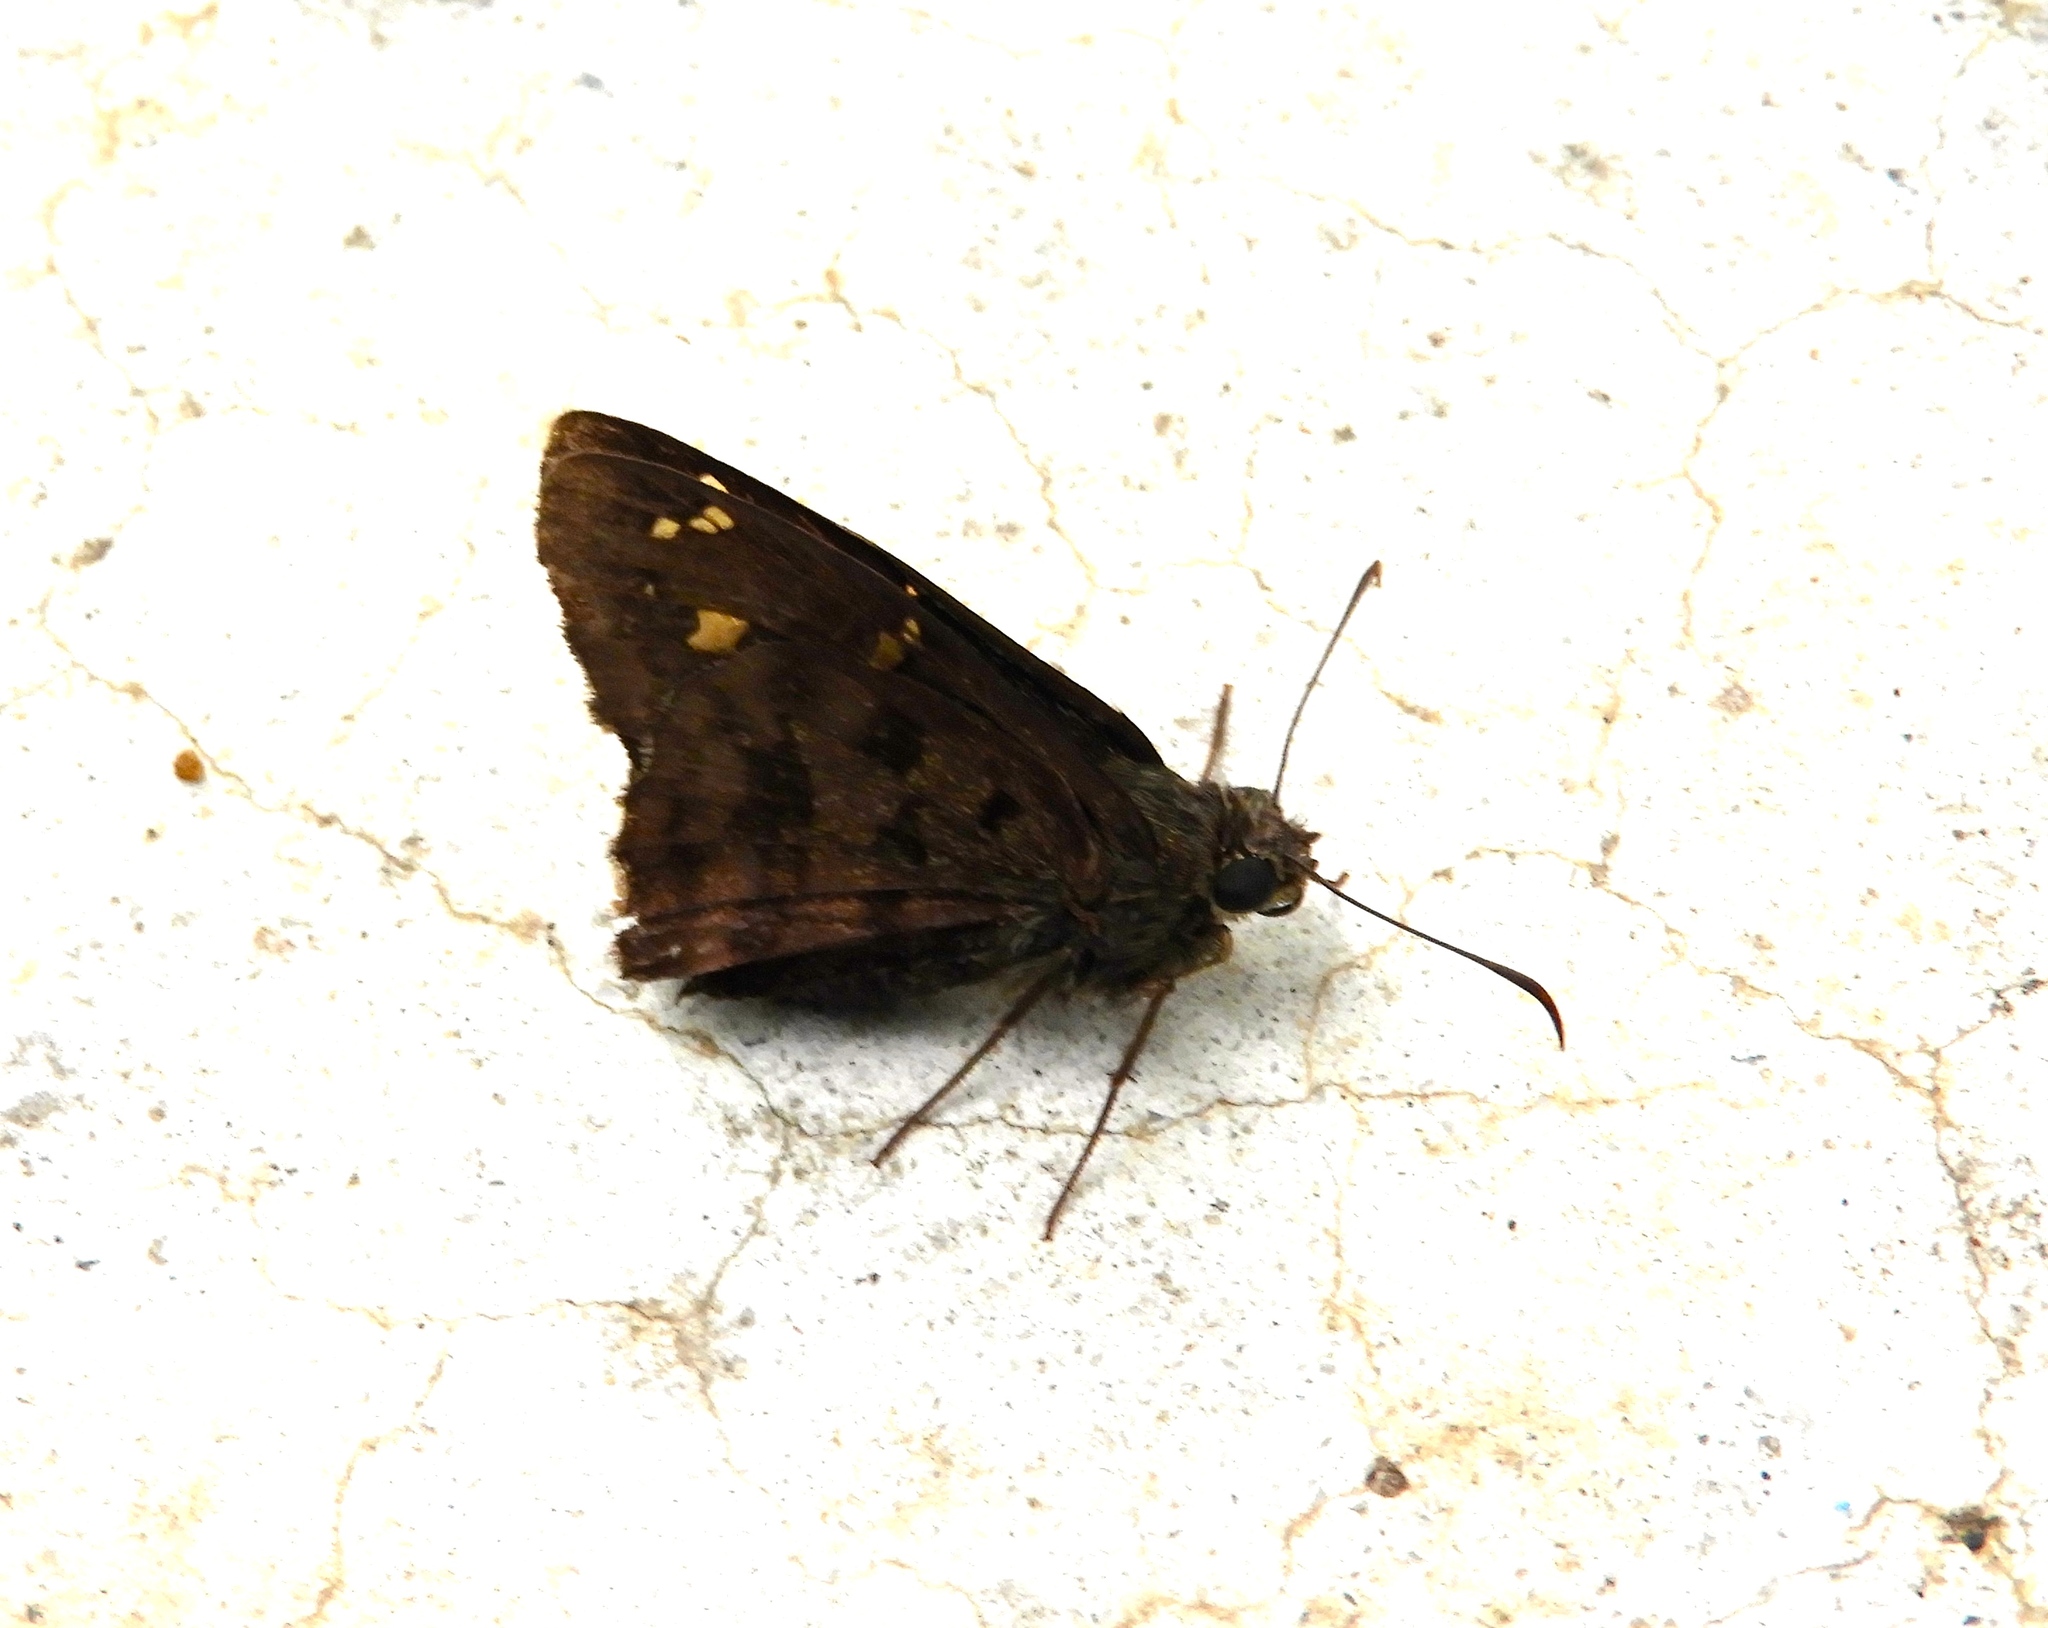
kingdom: Animalia
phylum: Arthropoda
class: Insecta
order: Lepidoptera
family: Hesperiidae
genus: Thorybes
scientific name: Thorybes
